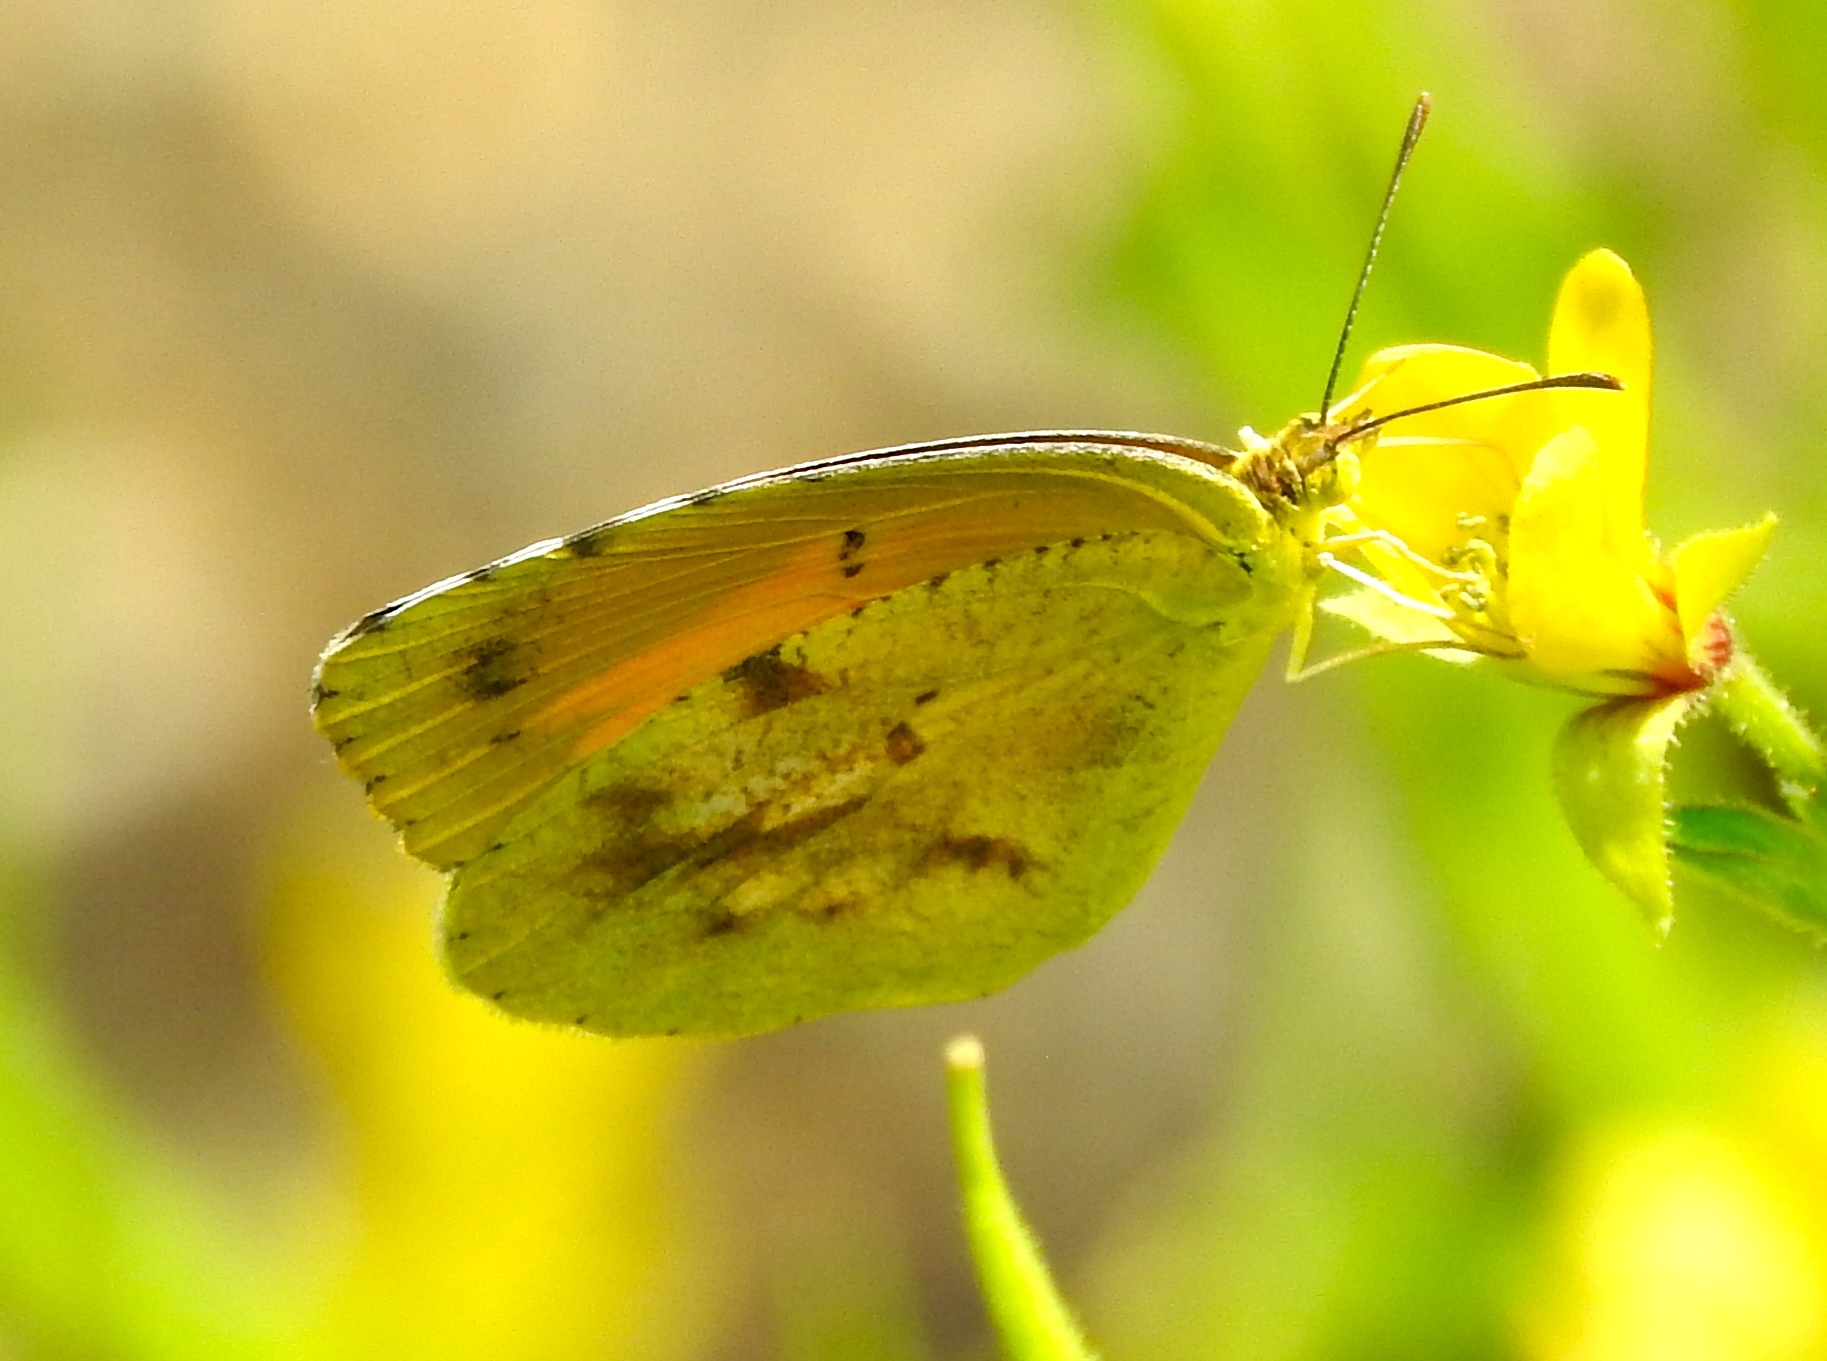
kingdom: Animalia
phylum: Arthropoda
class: Insecta
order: Lepidoptera
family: Pieridae
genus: Abaeis
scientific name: Abaeis nicippe
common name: Sleepy orange
